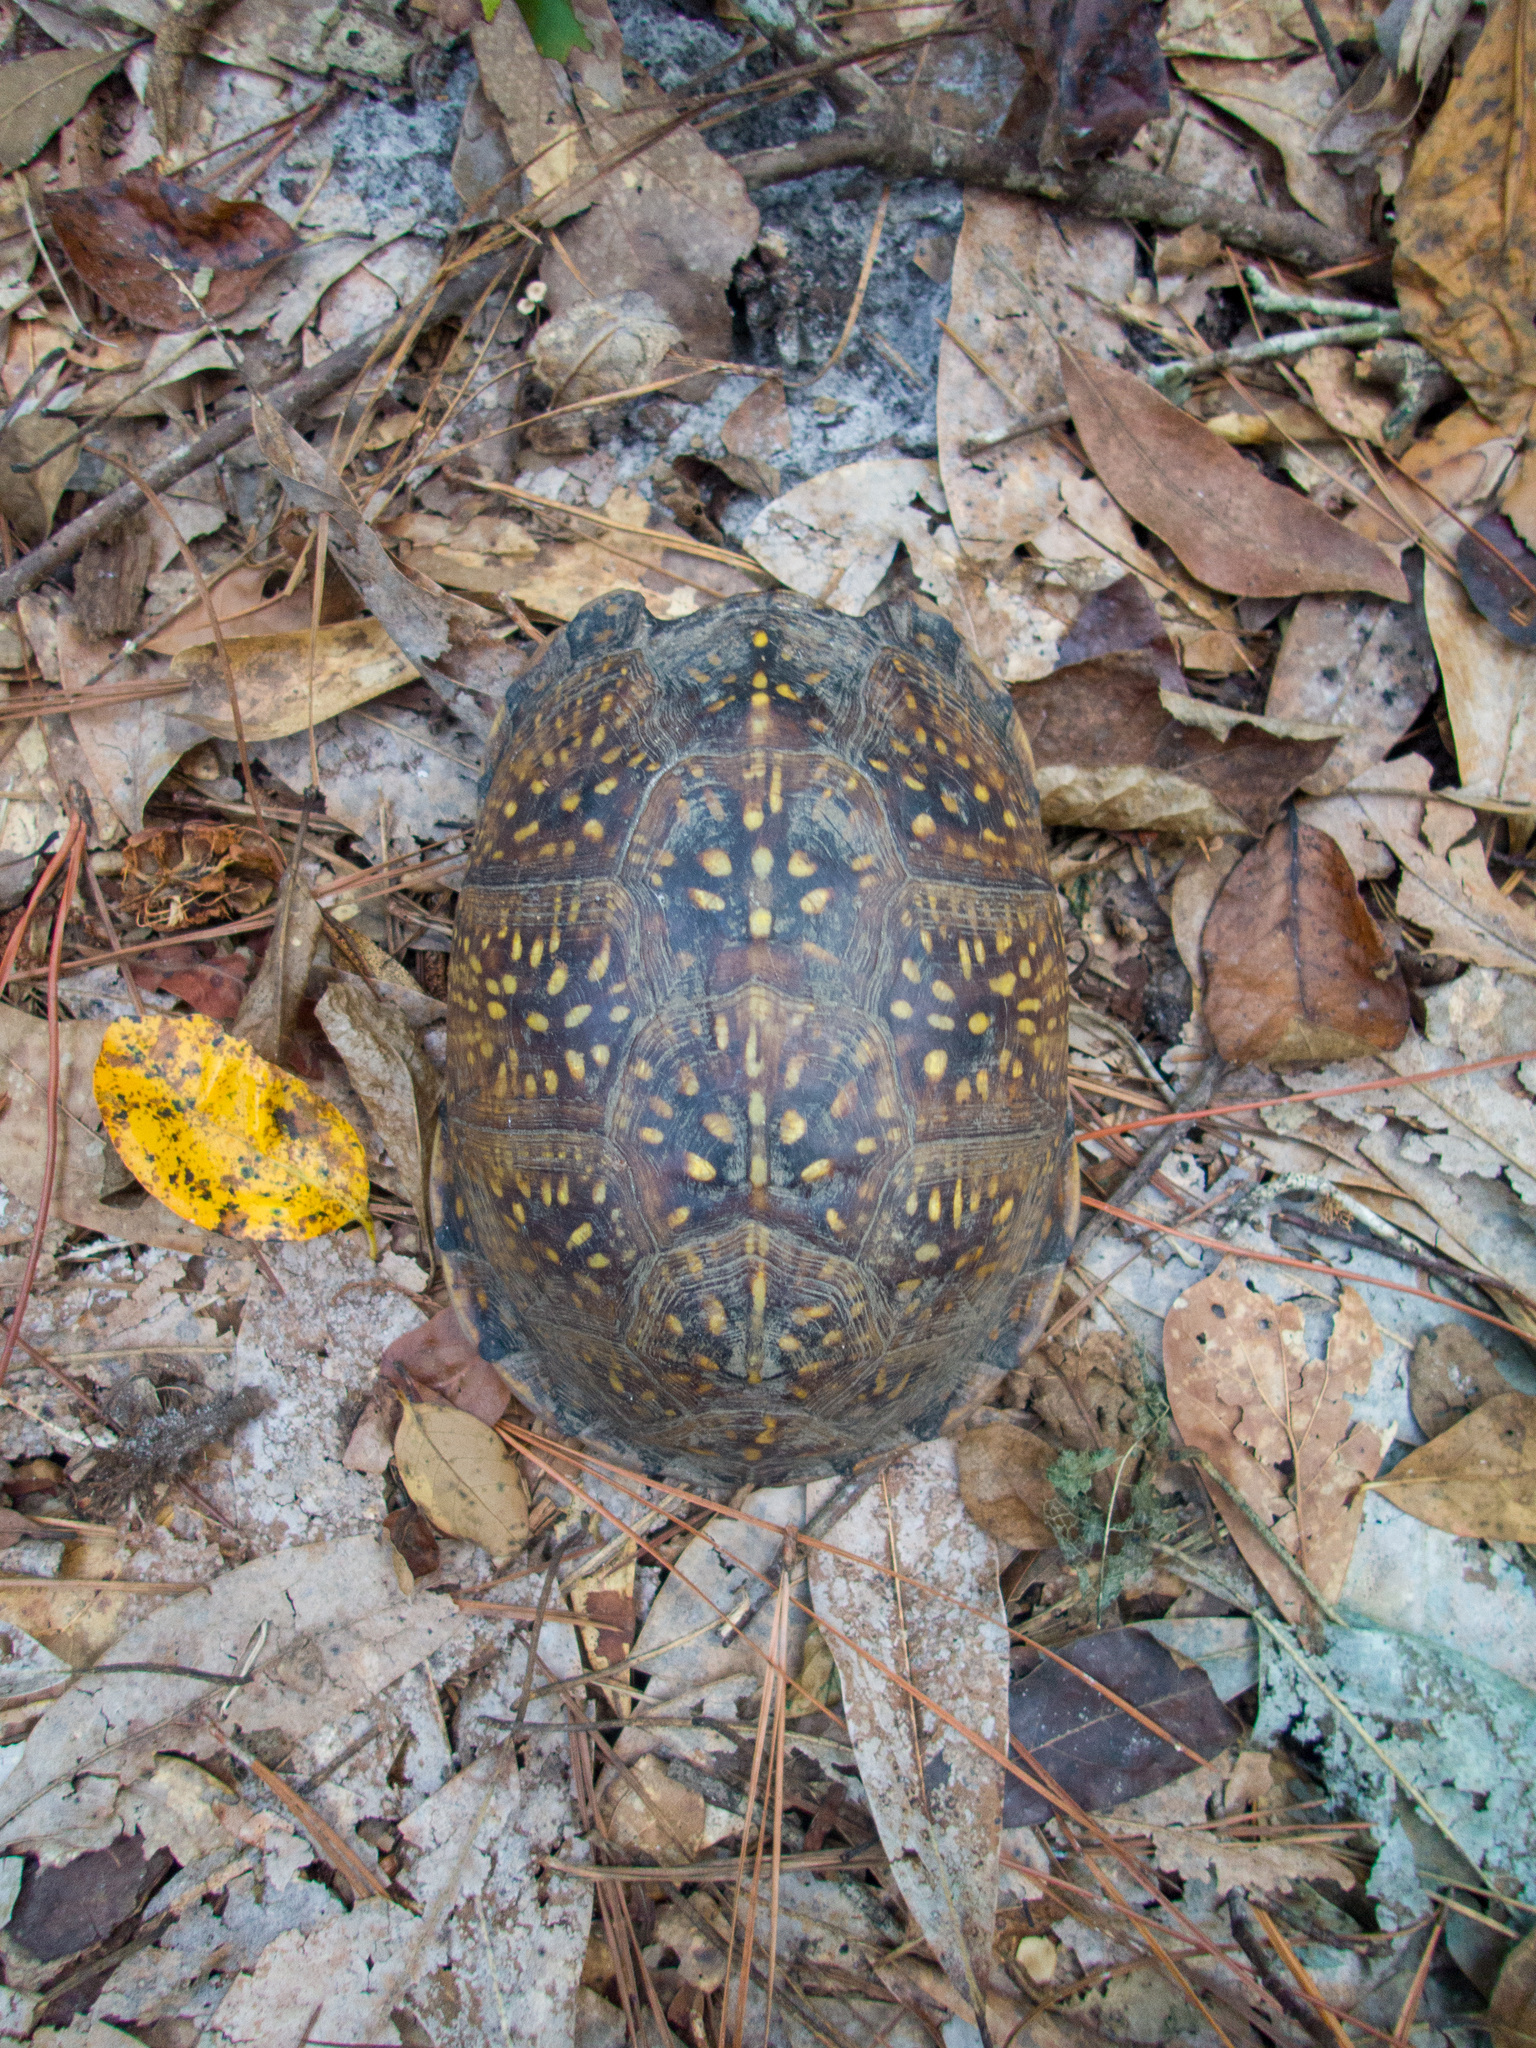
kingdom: Animalia
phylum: Chordata
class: Testudines
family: Emydidae
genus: Terrapene
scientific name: Terrapene carolina
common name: Common box turtle
